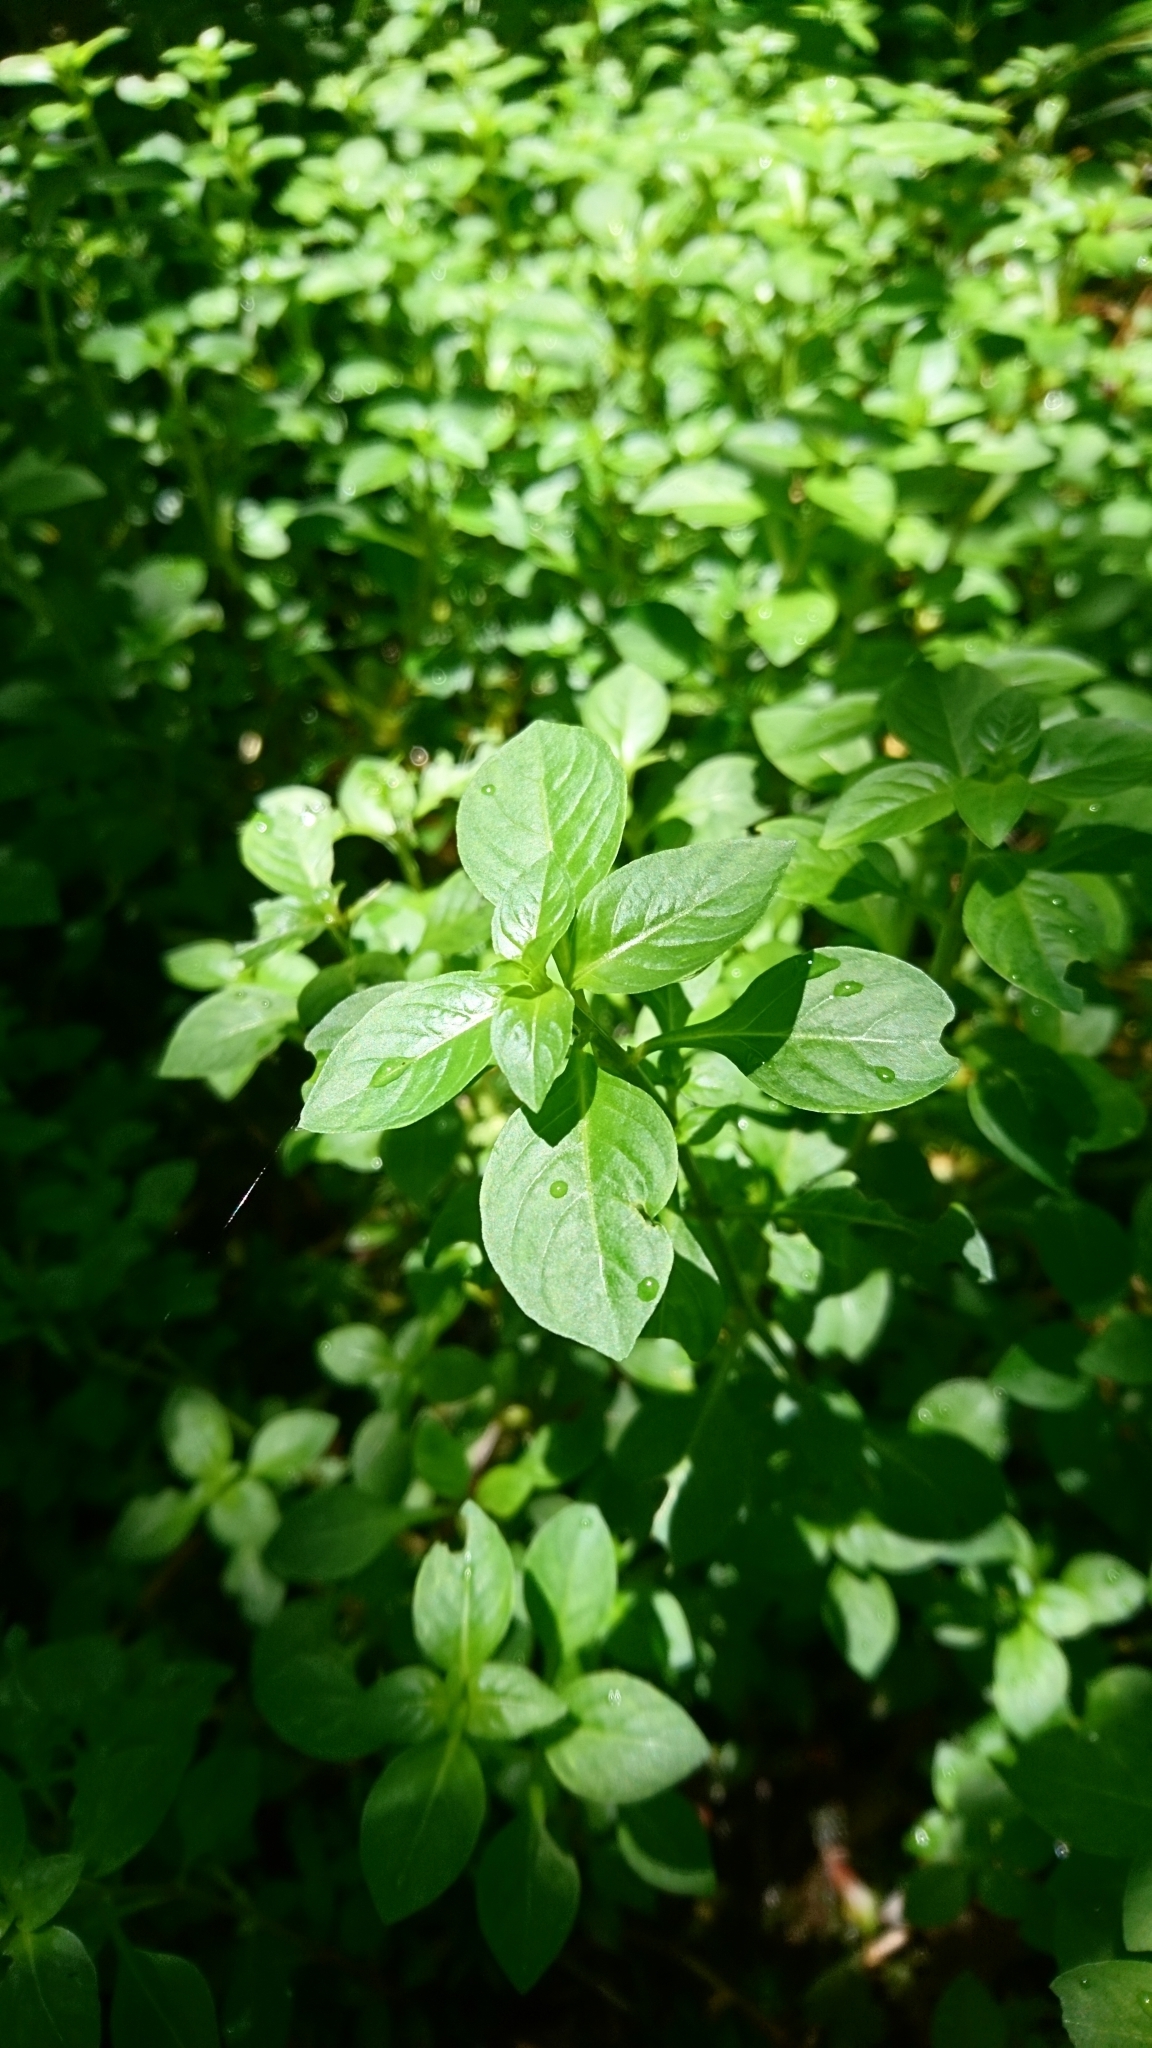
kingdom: Plantae
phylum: Tracheophyta
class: Magnoliopsida
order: Myrtales
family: Onagraceae
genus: Ludwigia
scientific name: Ludwigia palustris
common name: Hampshire-purslane
